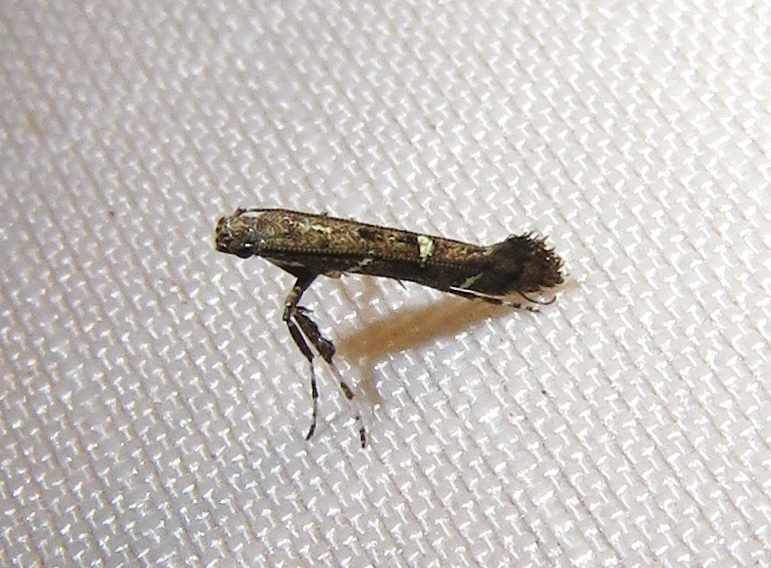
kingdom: Animalia
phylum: Arthropoda
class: Insecta
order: Lepidoptera
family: Gracillariidae
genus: Caloptilia
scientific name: Caloptilia triadicae
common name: Tallow leaf roller
